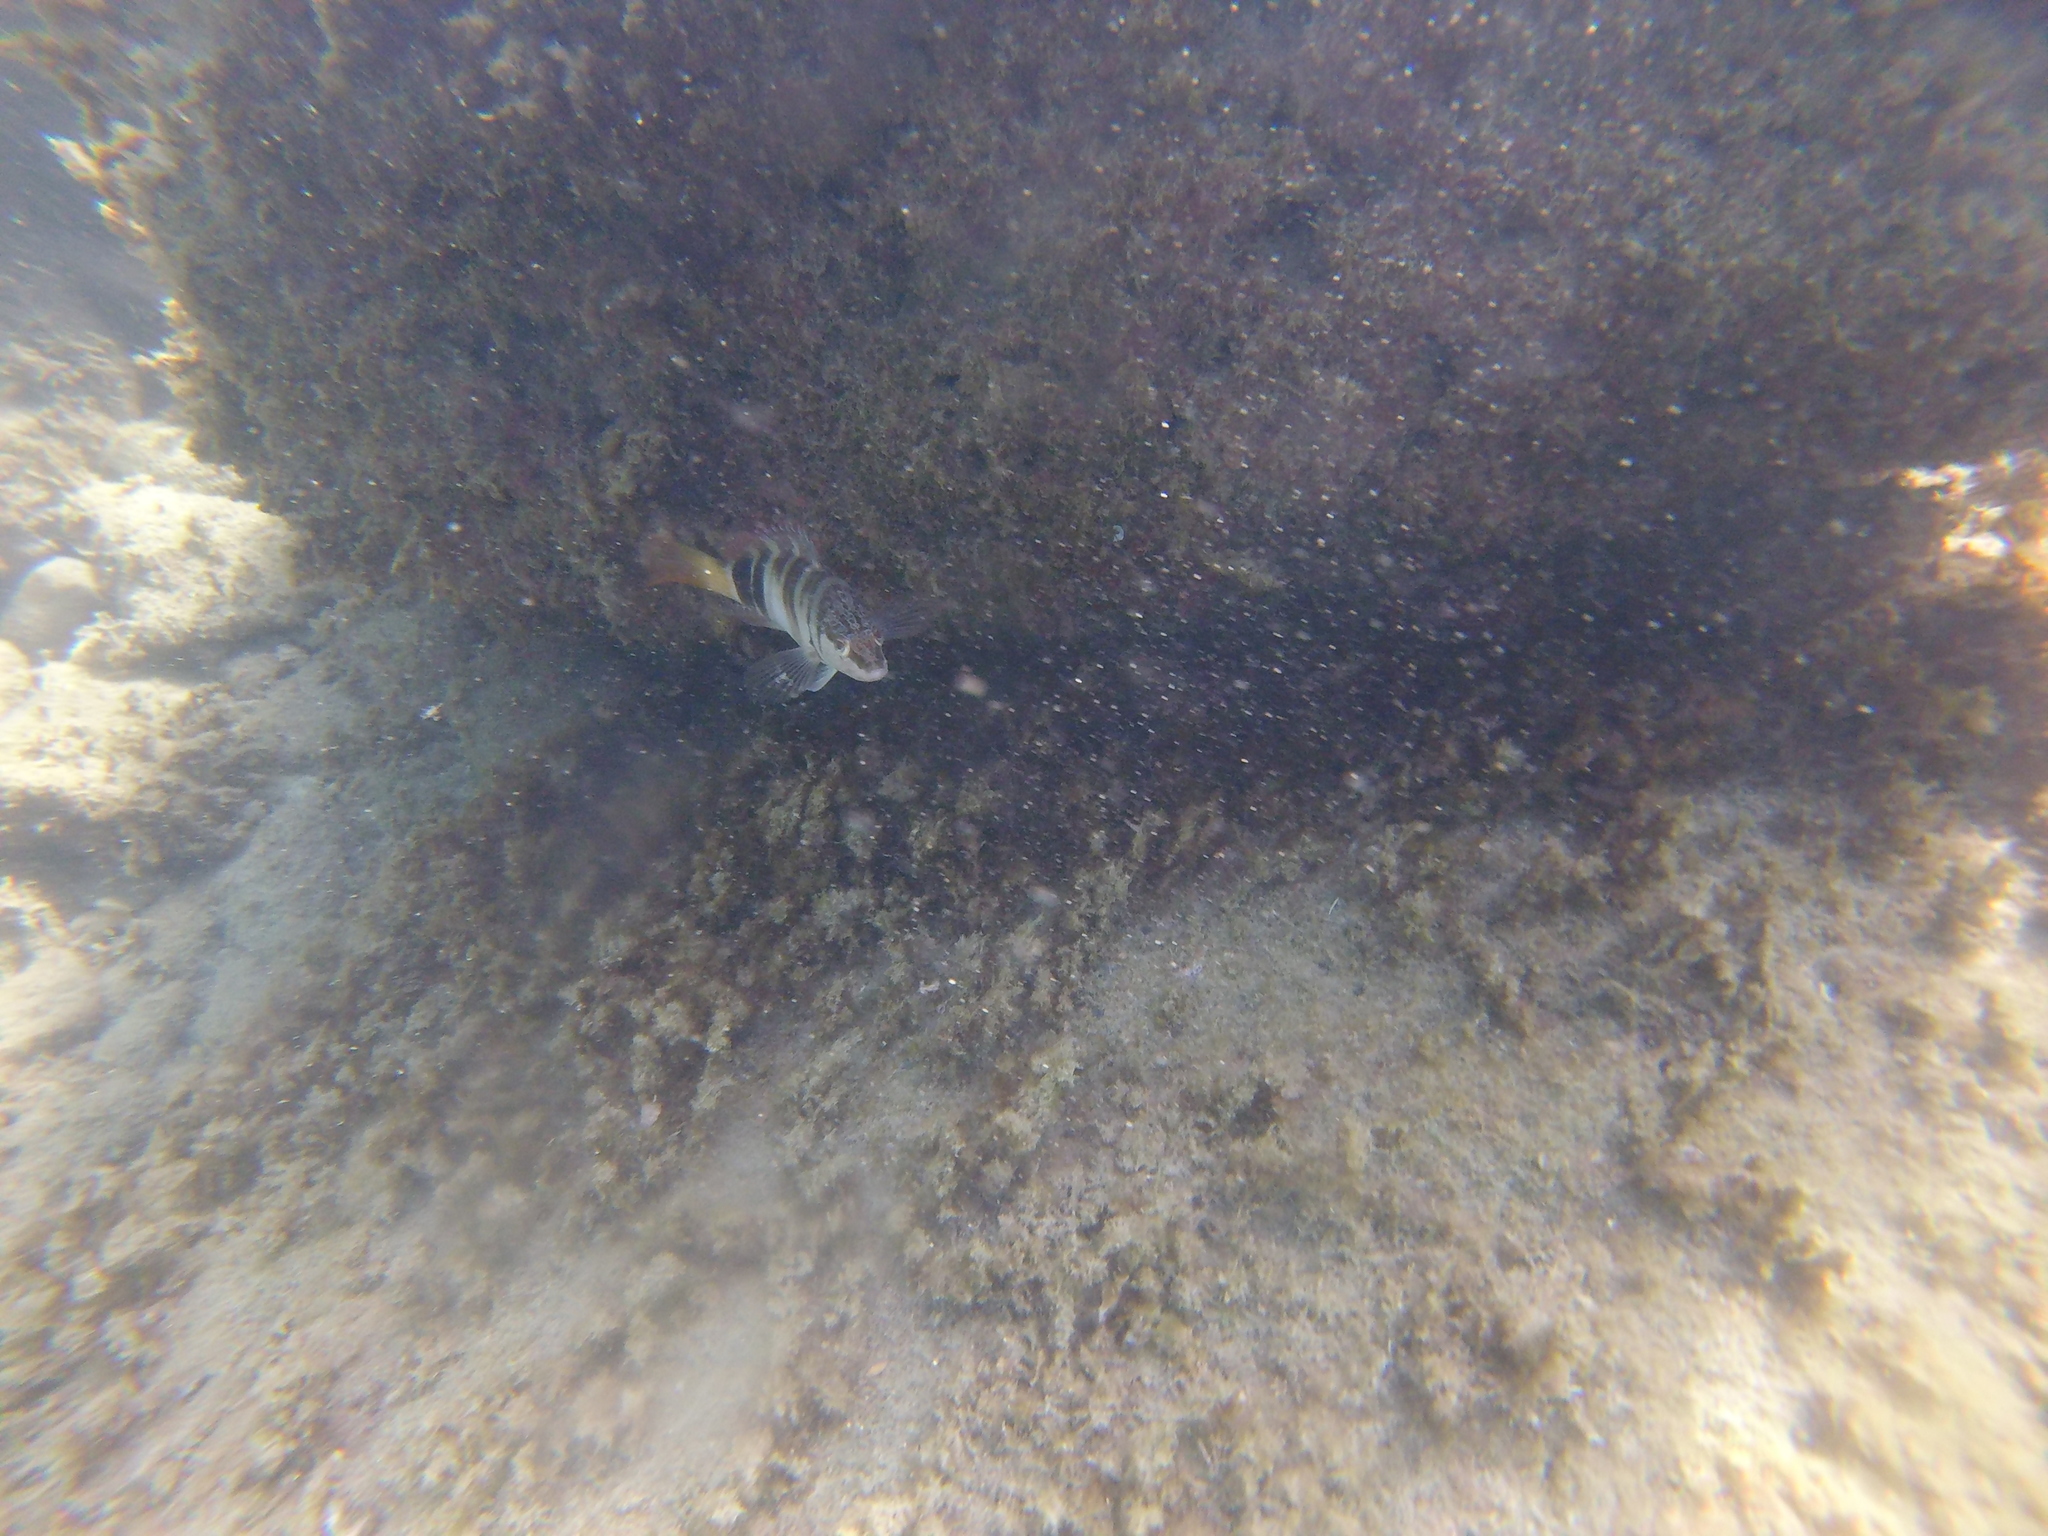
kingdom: Animalia
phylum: Chordata
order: Perciformes
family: Serranidae
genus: Serranus
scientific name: Serranus scriba
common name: Painted comber
